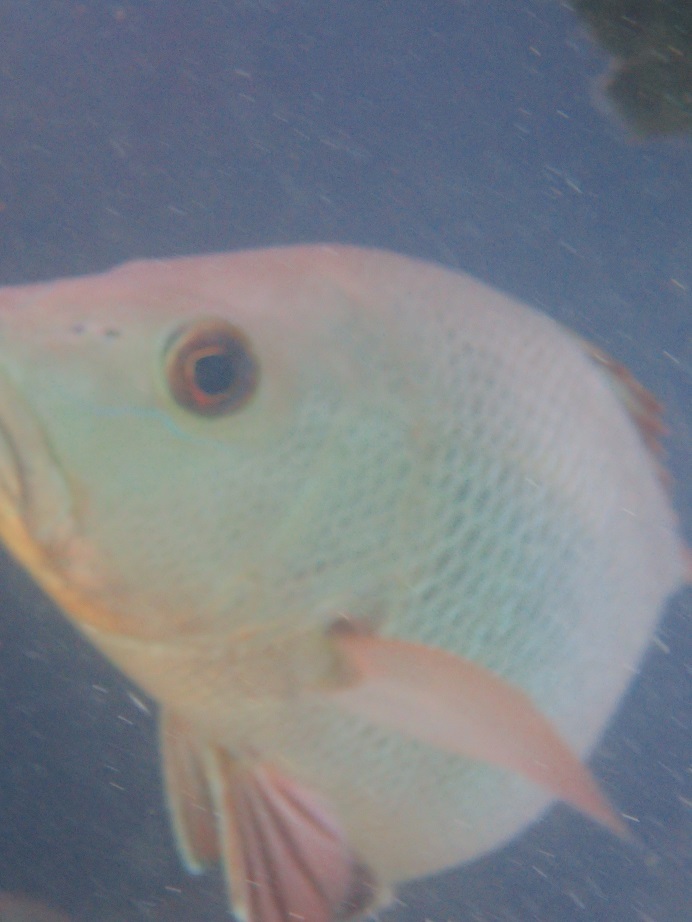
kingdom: Animalia
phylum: Chordata
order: Perciformes
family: Lutjanidae
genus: Lutjanus
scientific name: Lutjanus argentimaculatus
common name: Mangrove red snapper
